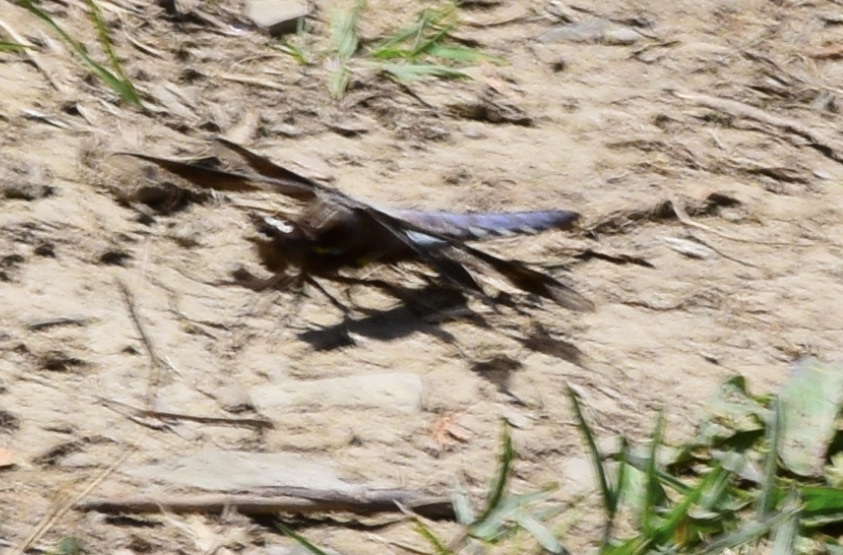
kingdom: Animalia
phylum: Arthropoda
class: Insecta
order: Odonata
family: Libellulidae
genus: Plathemis
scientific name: Plathemis lydia
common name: Common whitetail
